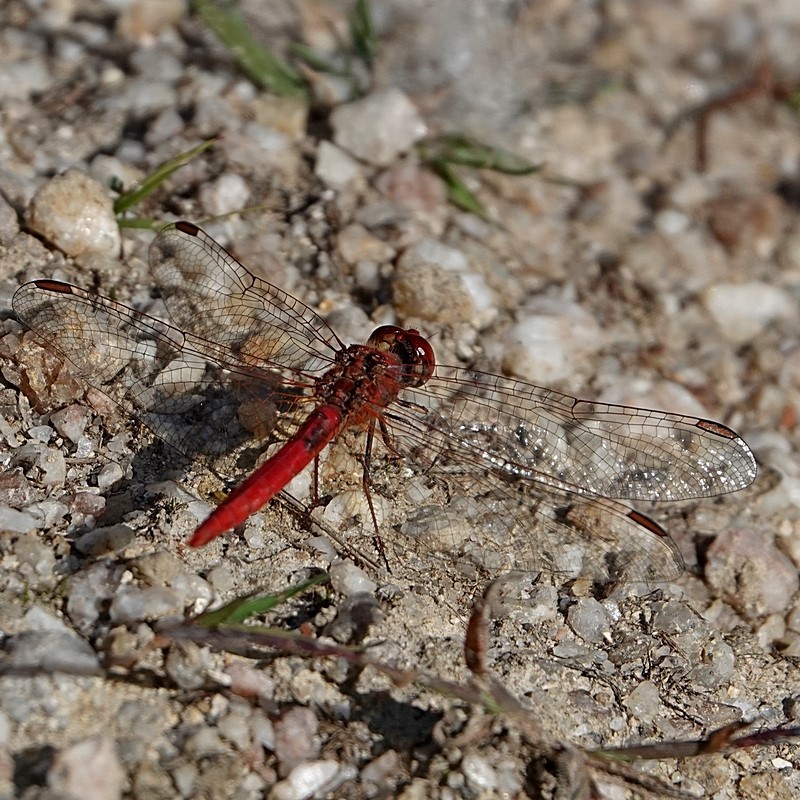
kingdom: Animalia
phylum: Arthropoda
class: Insecta
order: Odonata
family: Libellulidae
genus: Diplacodes
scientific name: Diplacodes haematodes
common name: Scarlet percher
